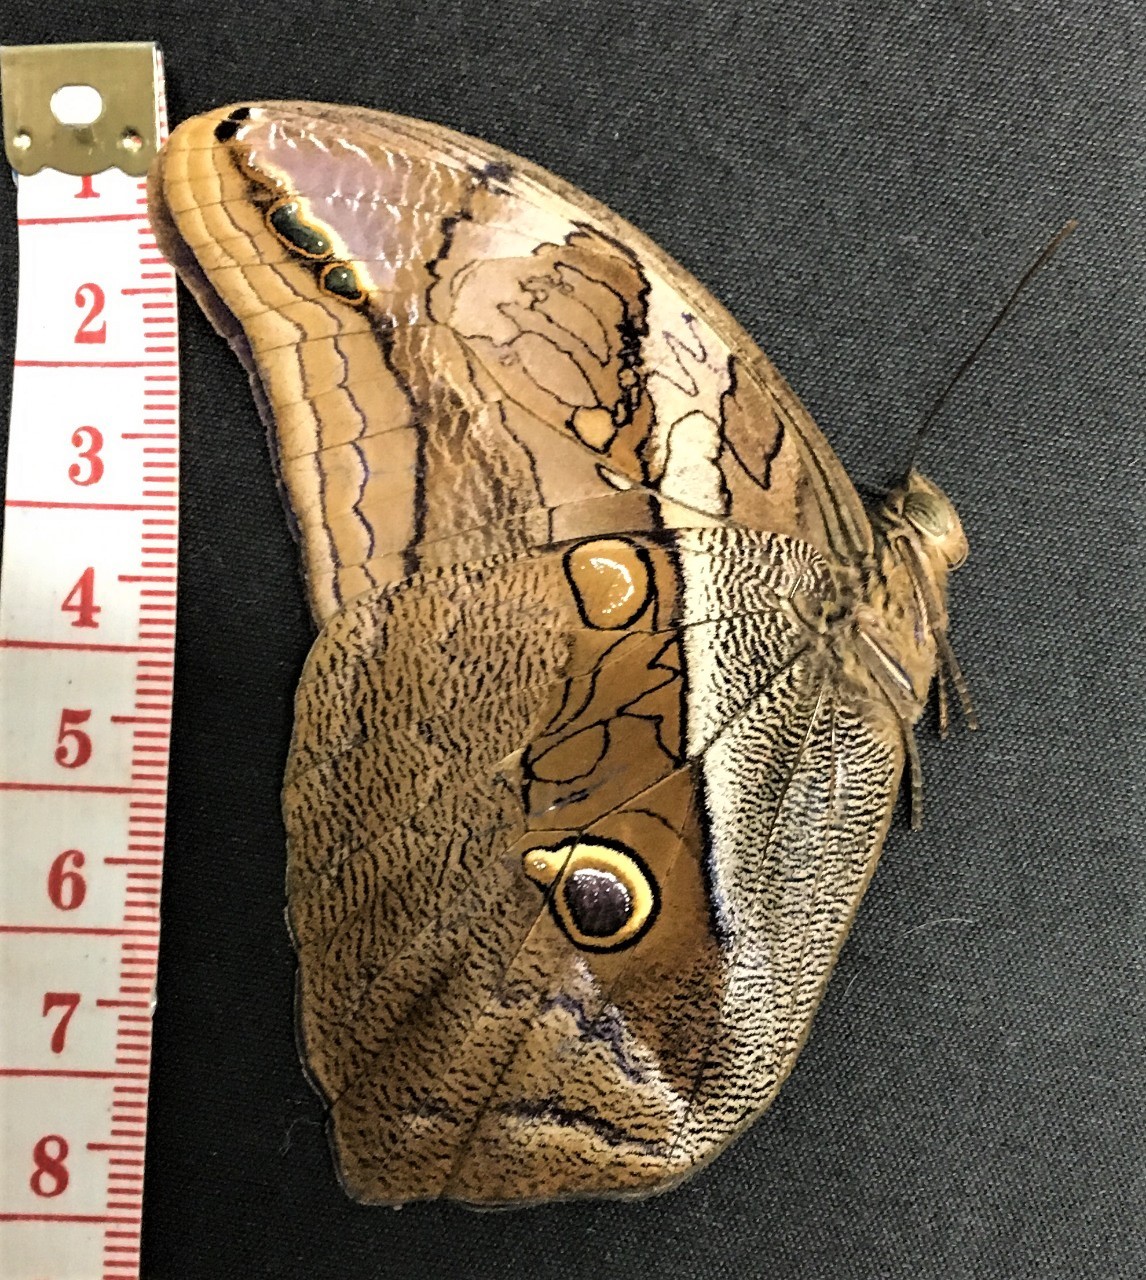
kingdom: Animalia
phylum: Arthropoda
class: Insecta
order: Lepidoptera
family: Nymphalidae
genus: Eryphanis
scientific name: Eryphanis polyxena
